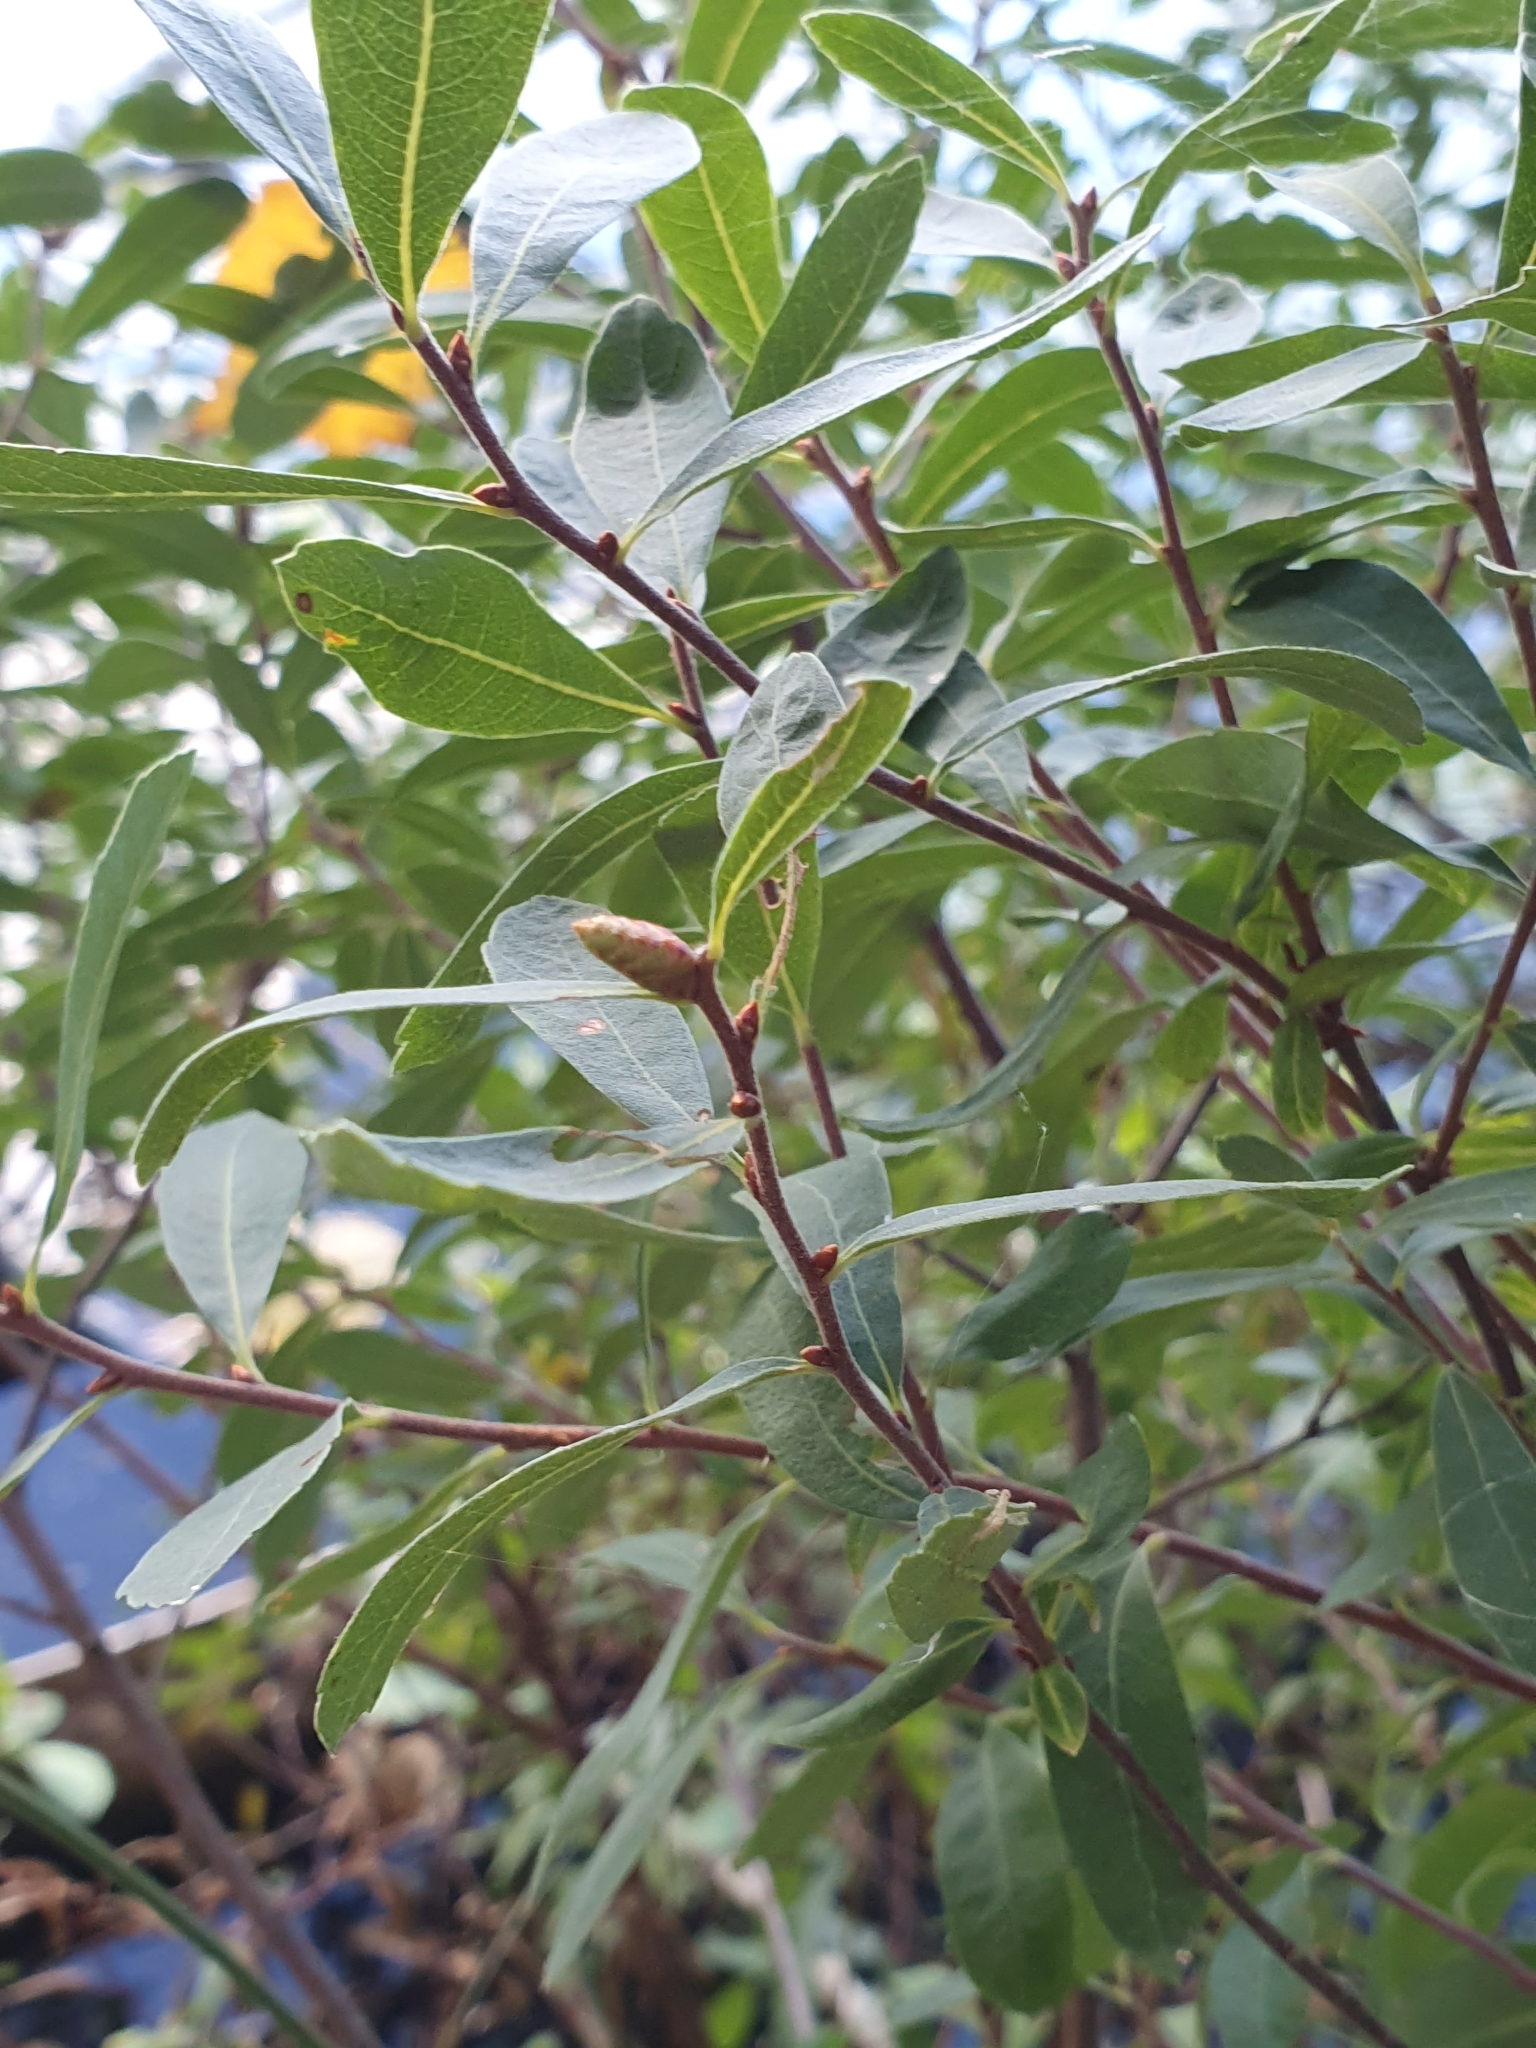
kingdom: Plantae
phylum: Tracheophyta
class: Magnoliopsida
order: Fagales
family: Myricaceae
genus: Myrica
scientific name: Myrica gale
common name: Sweet gale
